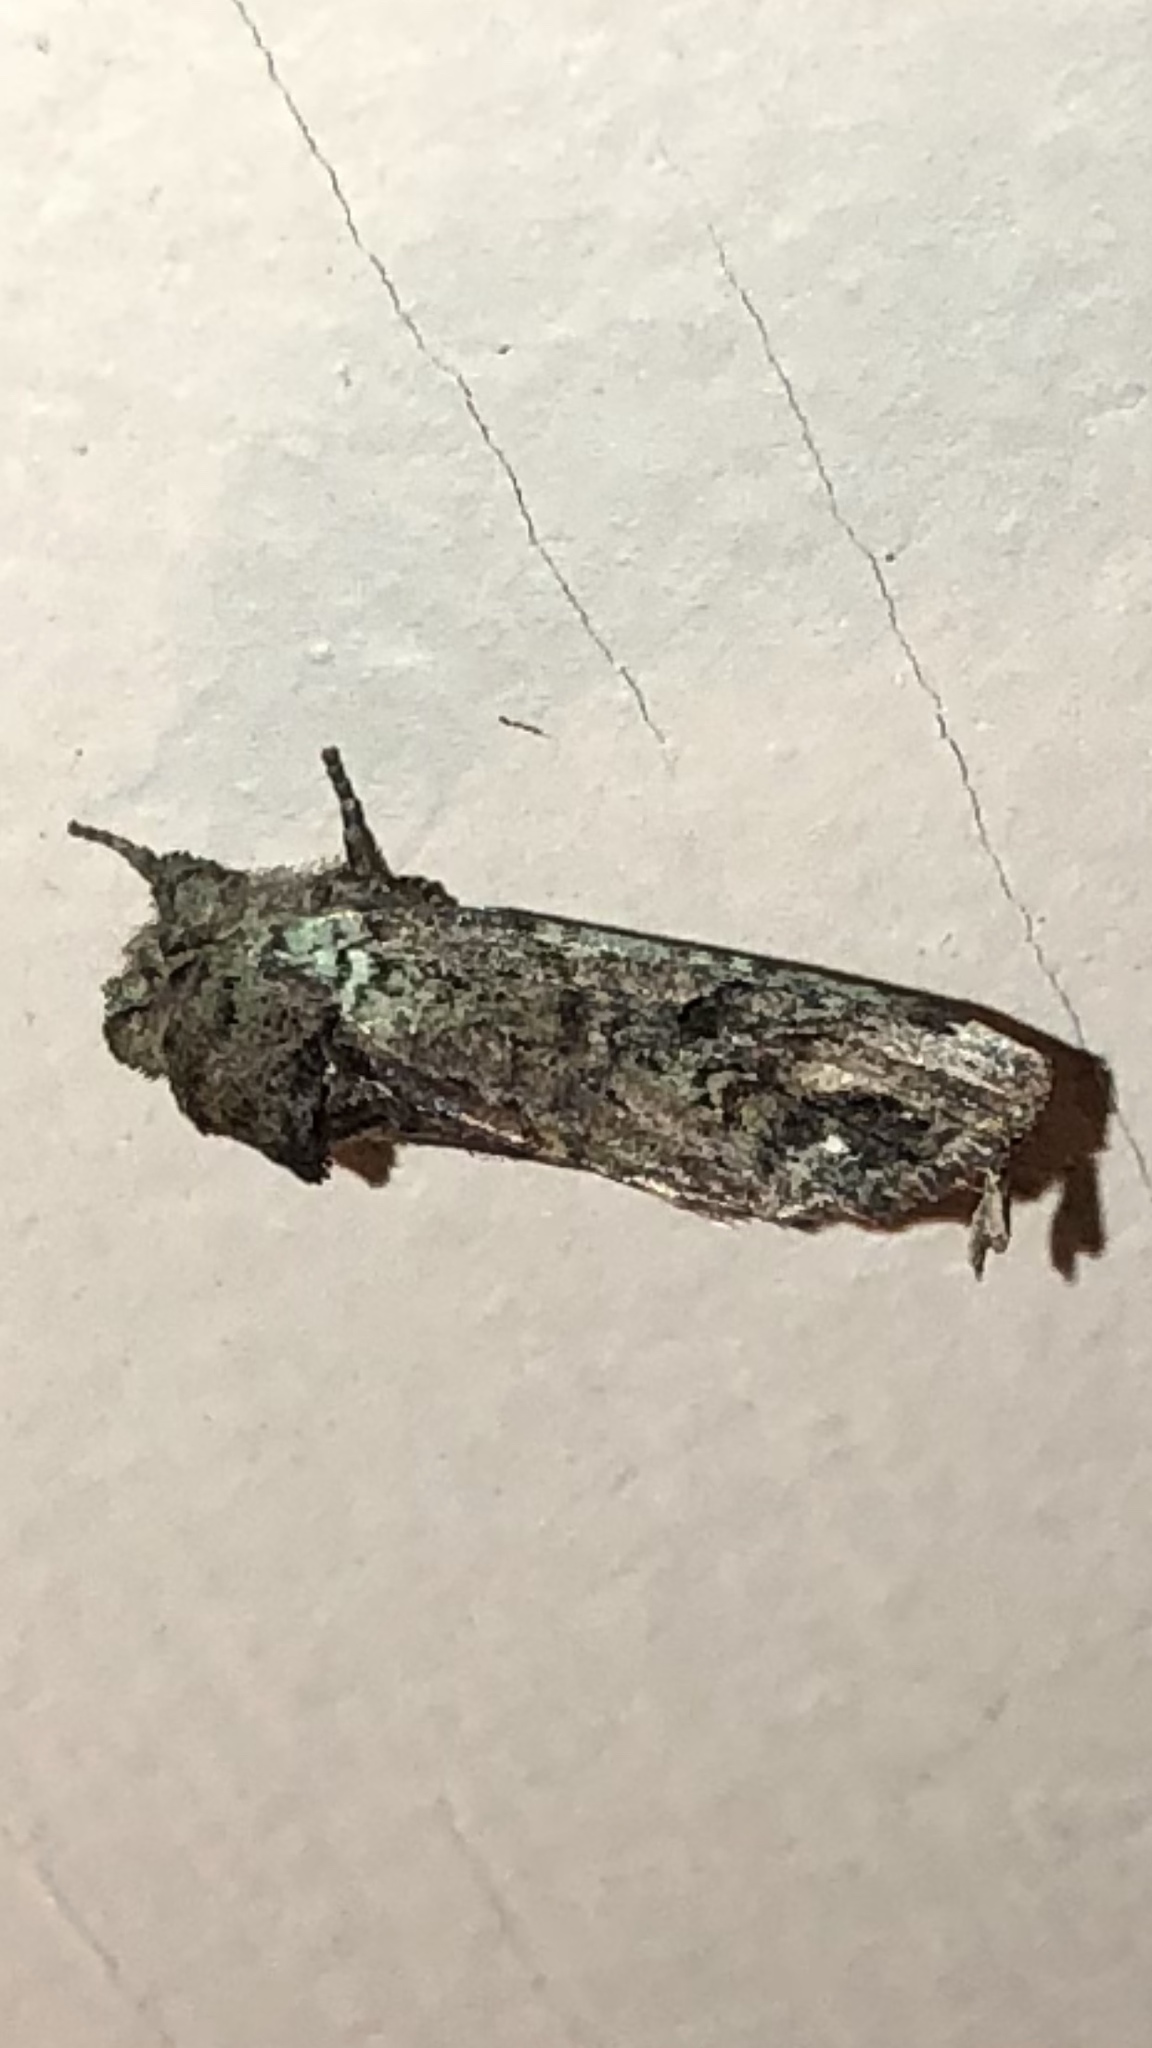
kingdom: Animalia
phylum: Arthropoda
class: Insecta
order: Lepidoptera
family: Notodontidae
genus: Schizura
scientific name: Schizura
